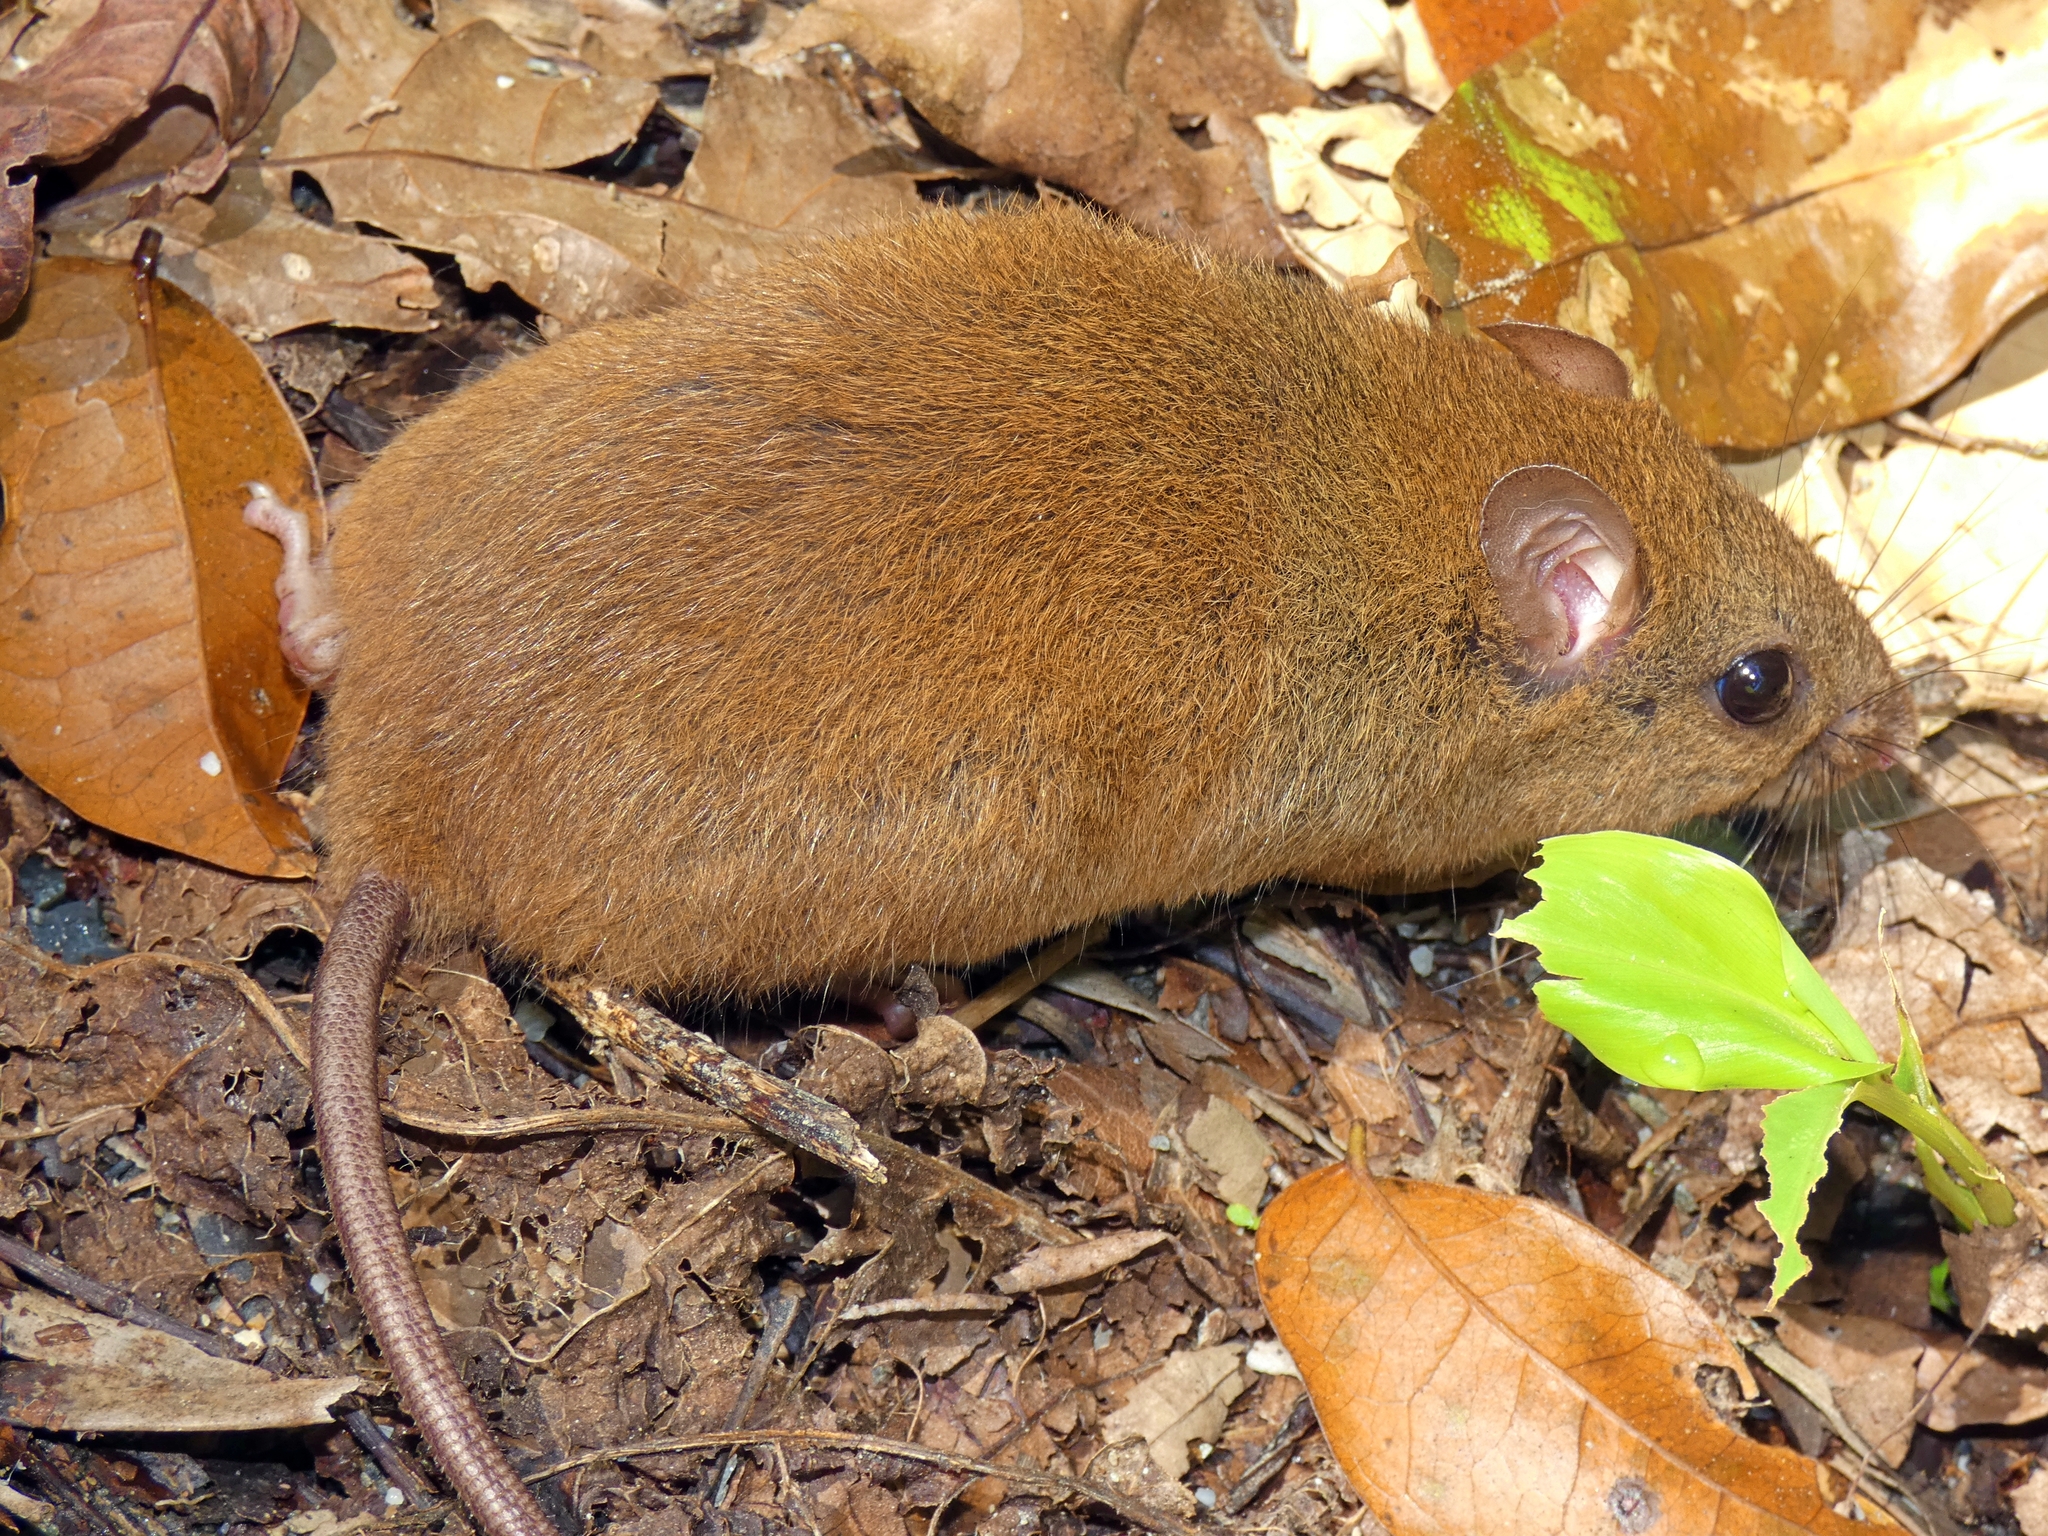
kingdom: Animalia
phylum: Chordata
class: Mammalia
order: Rodentia
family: Muridae
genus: Melomys
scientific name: Melomys burtoni
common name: Grassland melomys
